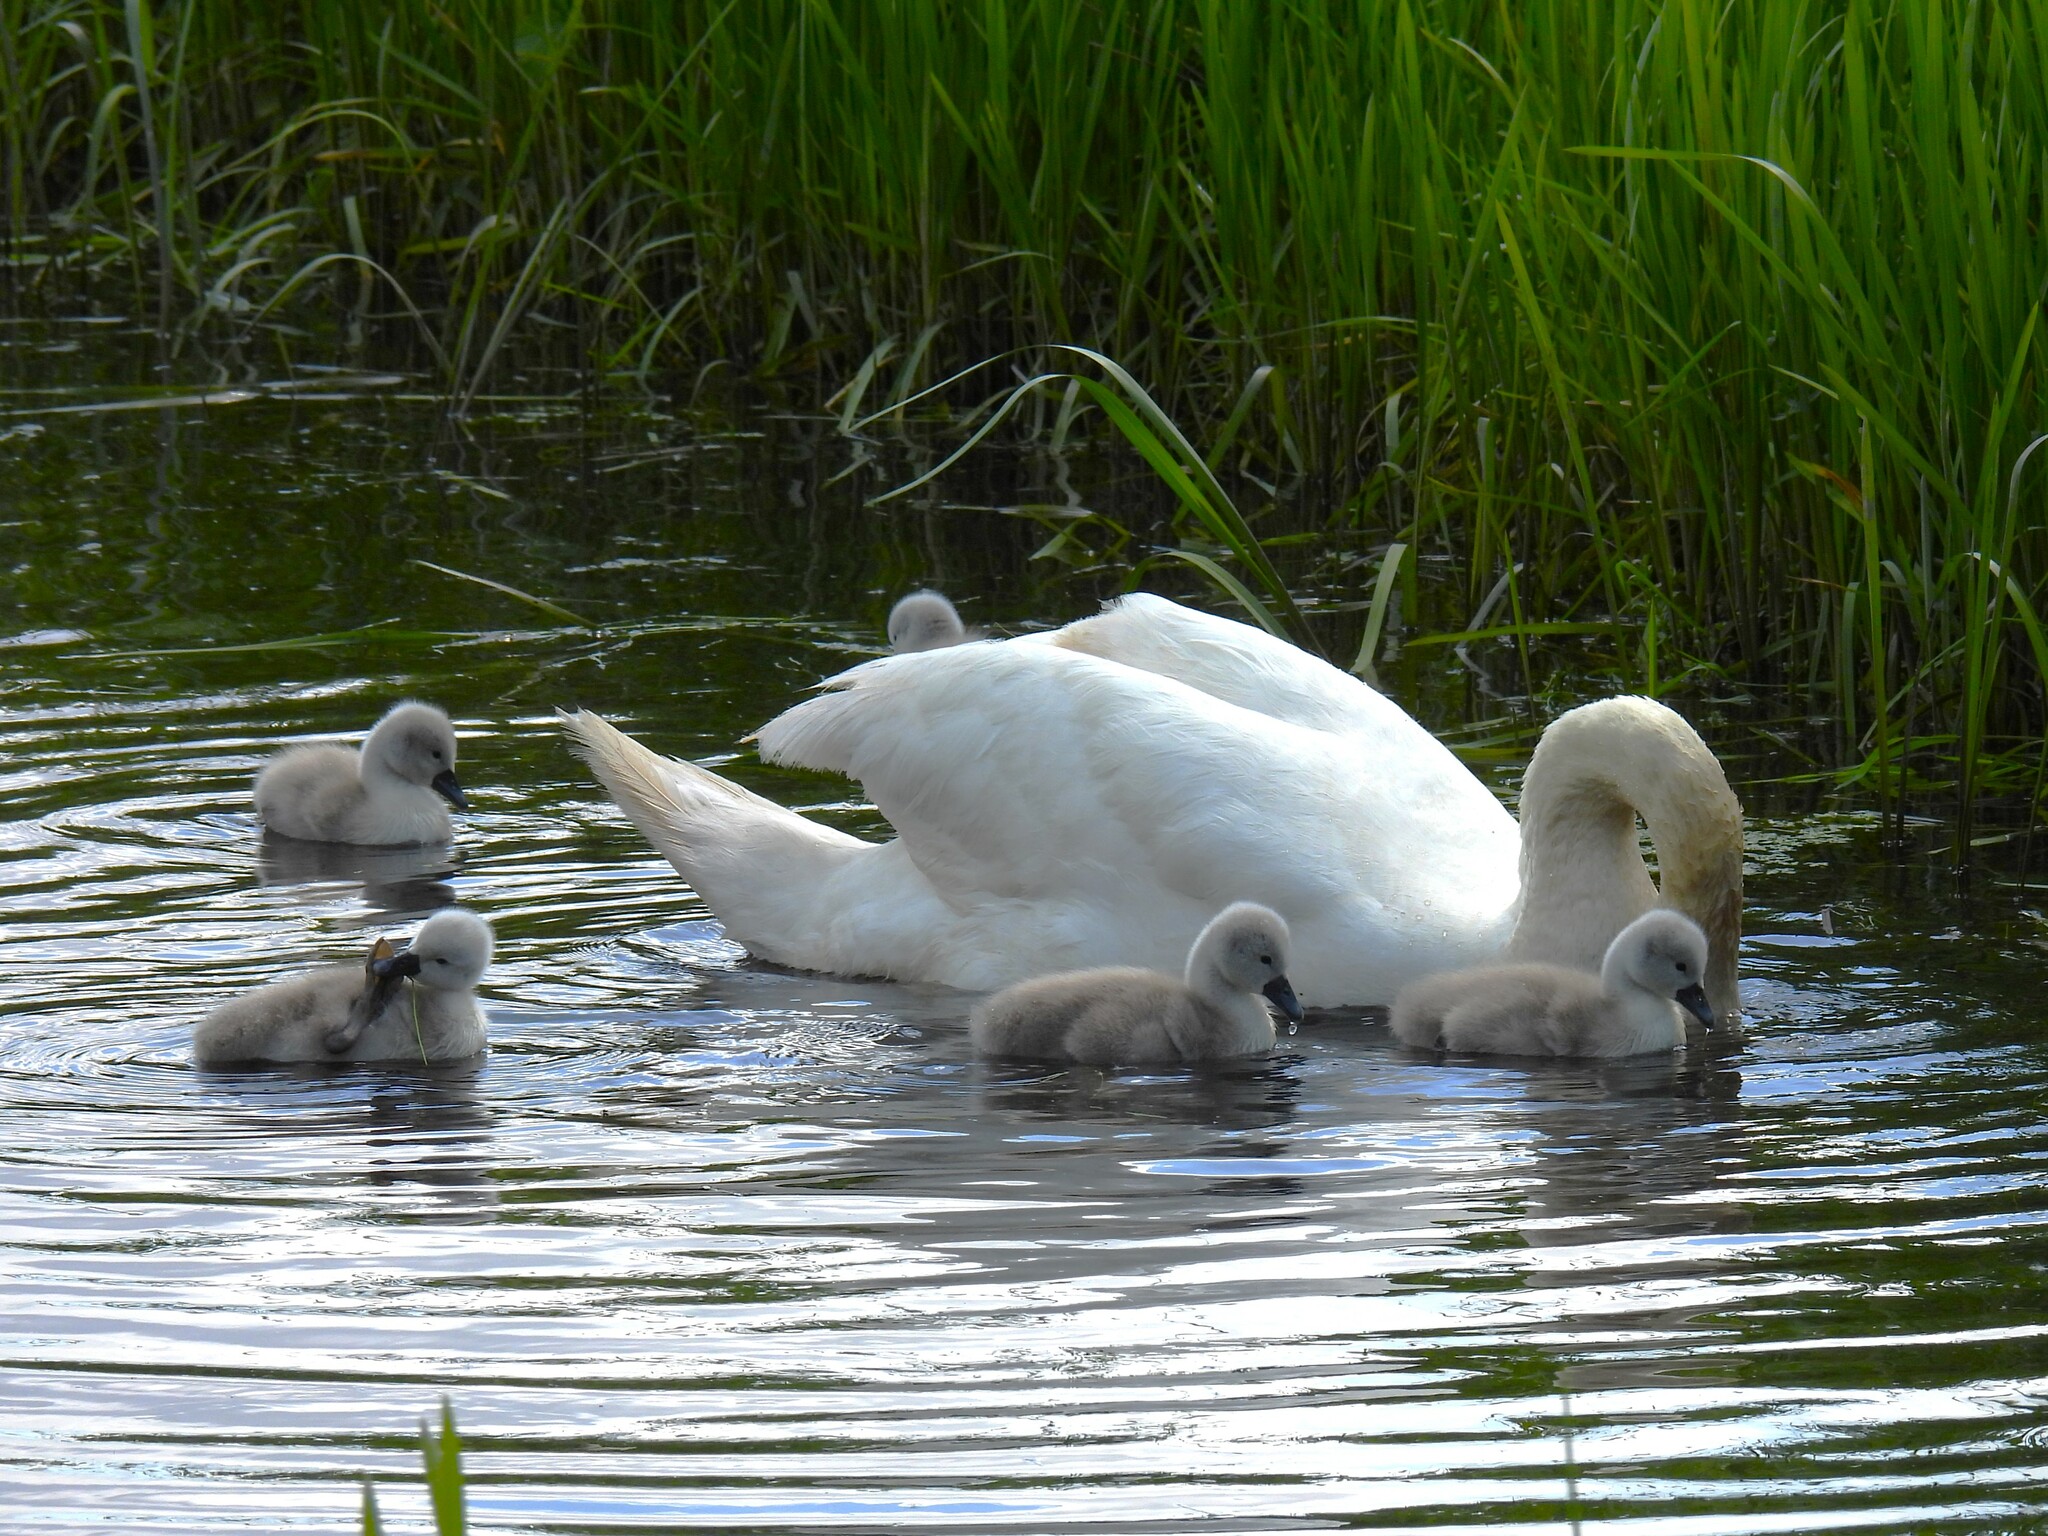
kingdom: Animalia
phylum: Chordata
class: Aves
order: Anseriformes
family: Anatidae
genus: Cygnus
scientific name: Cygnus olor
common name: Mute swan
